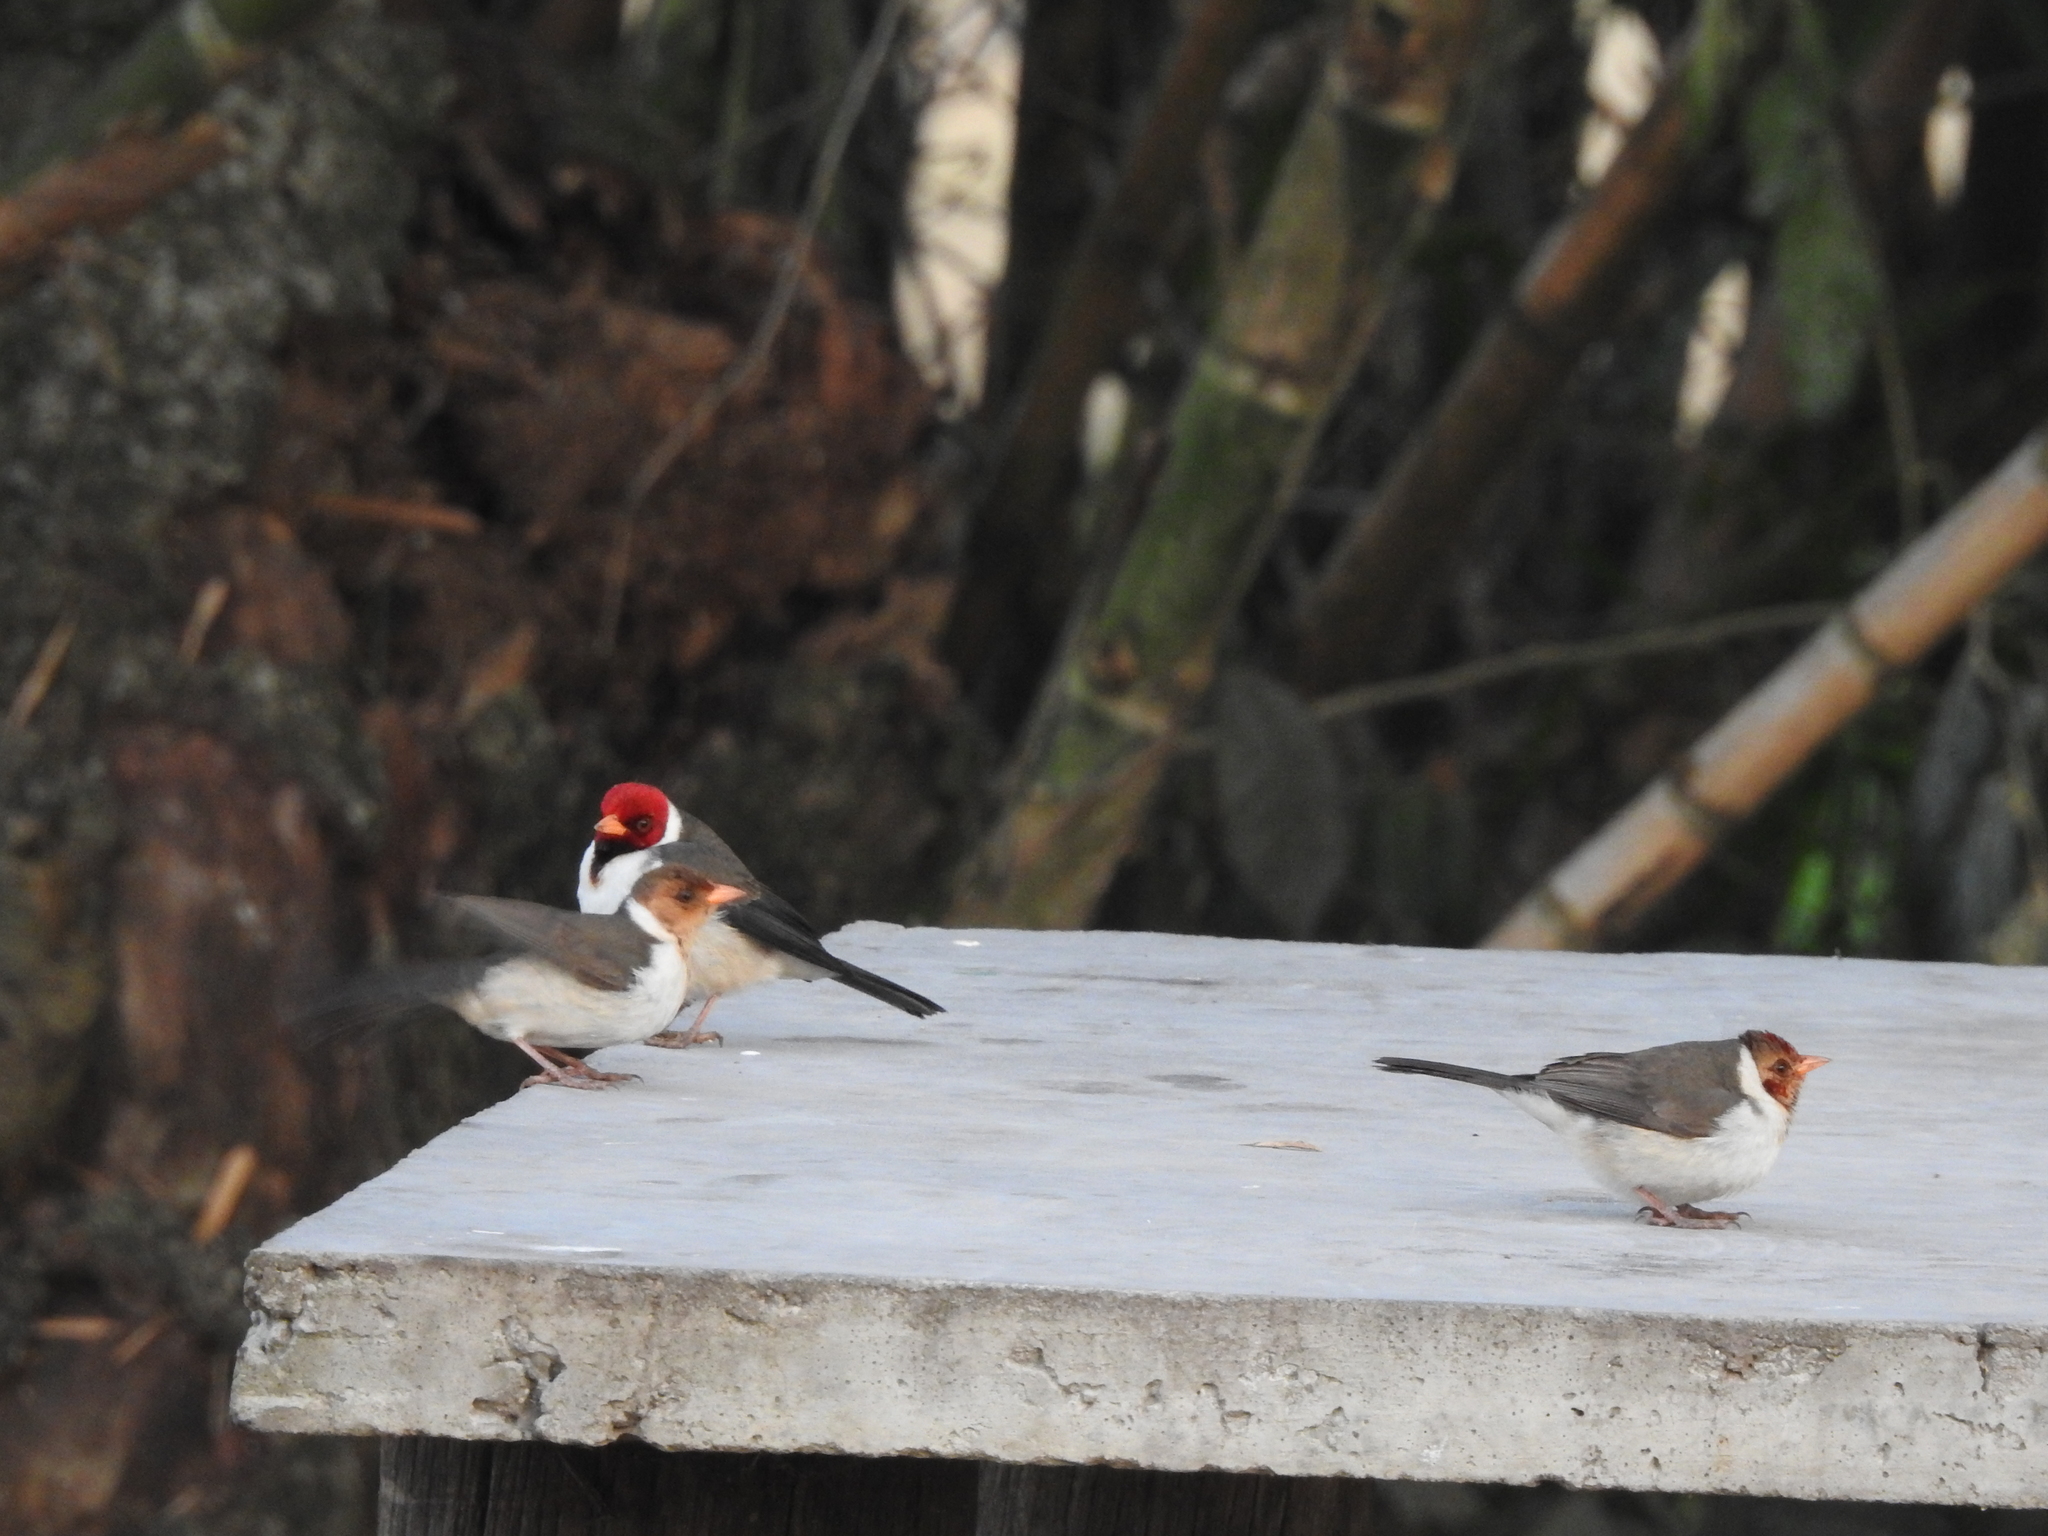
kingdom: Animalia
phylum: Chordata
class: Aves
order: Passeriformes
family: Thraupidae
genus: Paroaria
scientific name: Paroaria capitata
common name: Yellow-billed cardinal
